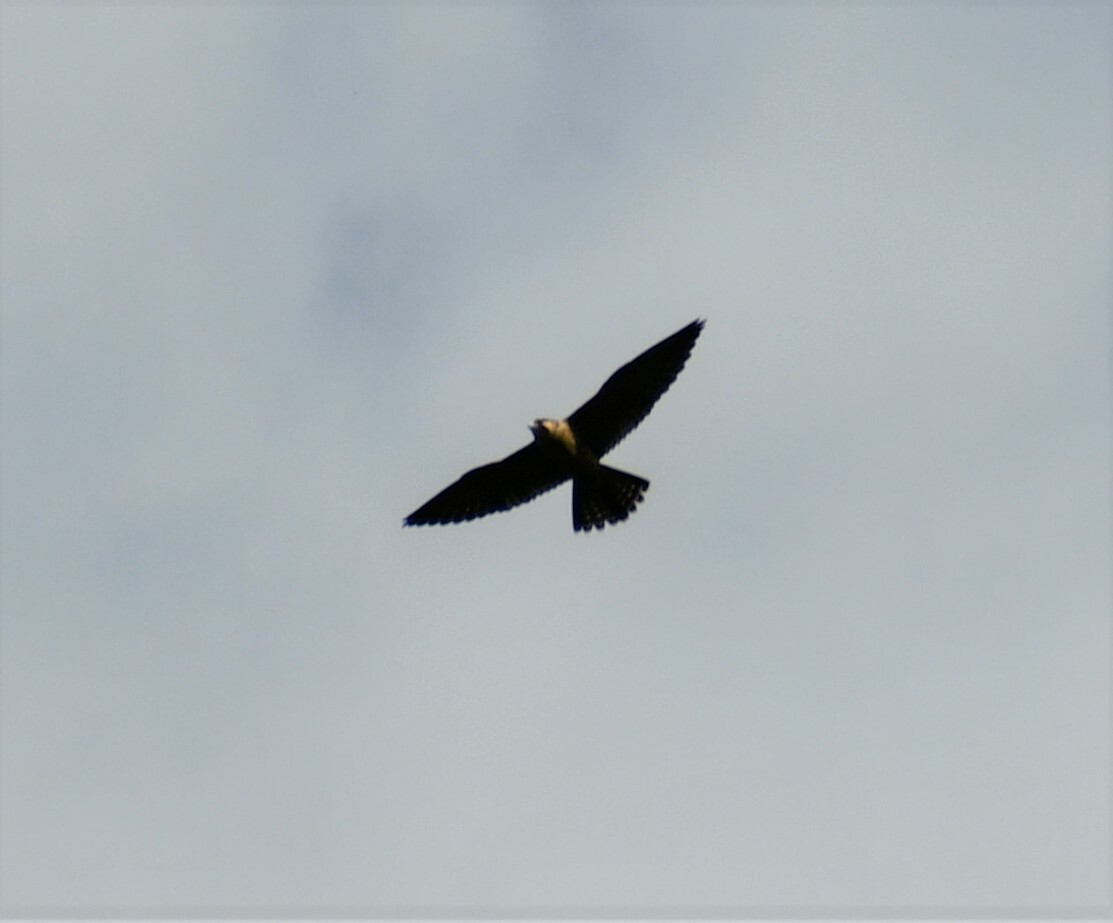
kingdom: Animalia
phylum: Chordata
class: Aves
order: Falconiformes
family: Falconidae
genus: Falco
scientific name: Falco peregrinus
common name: Peregrine falcon
